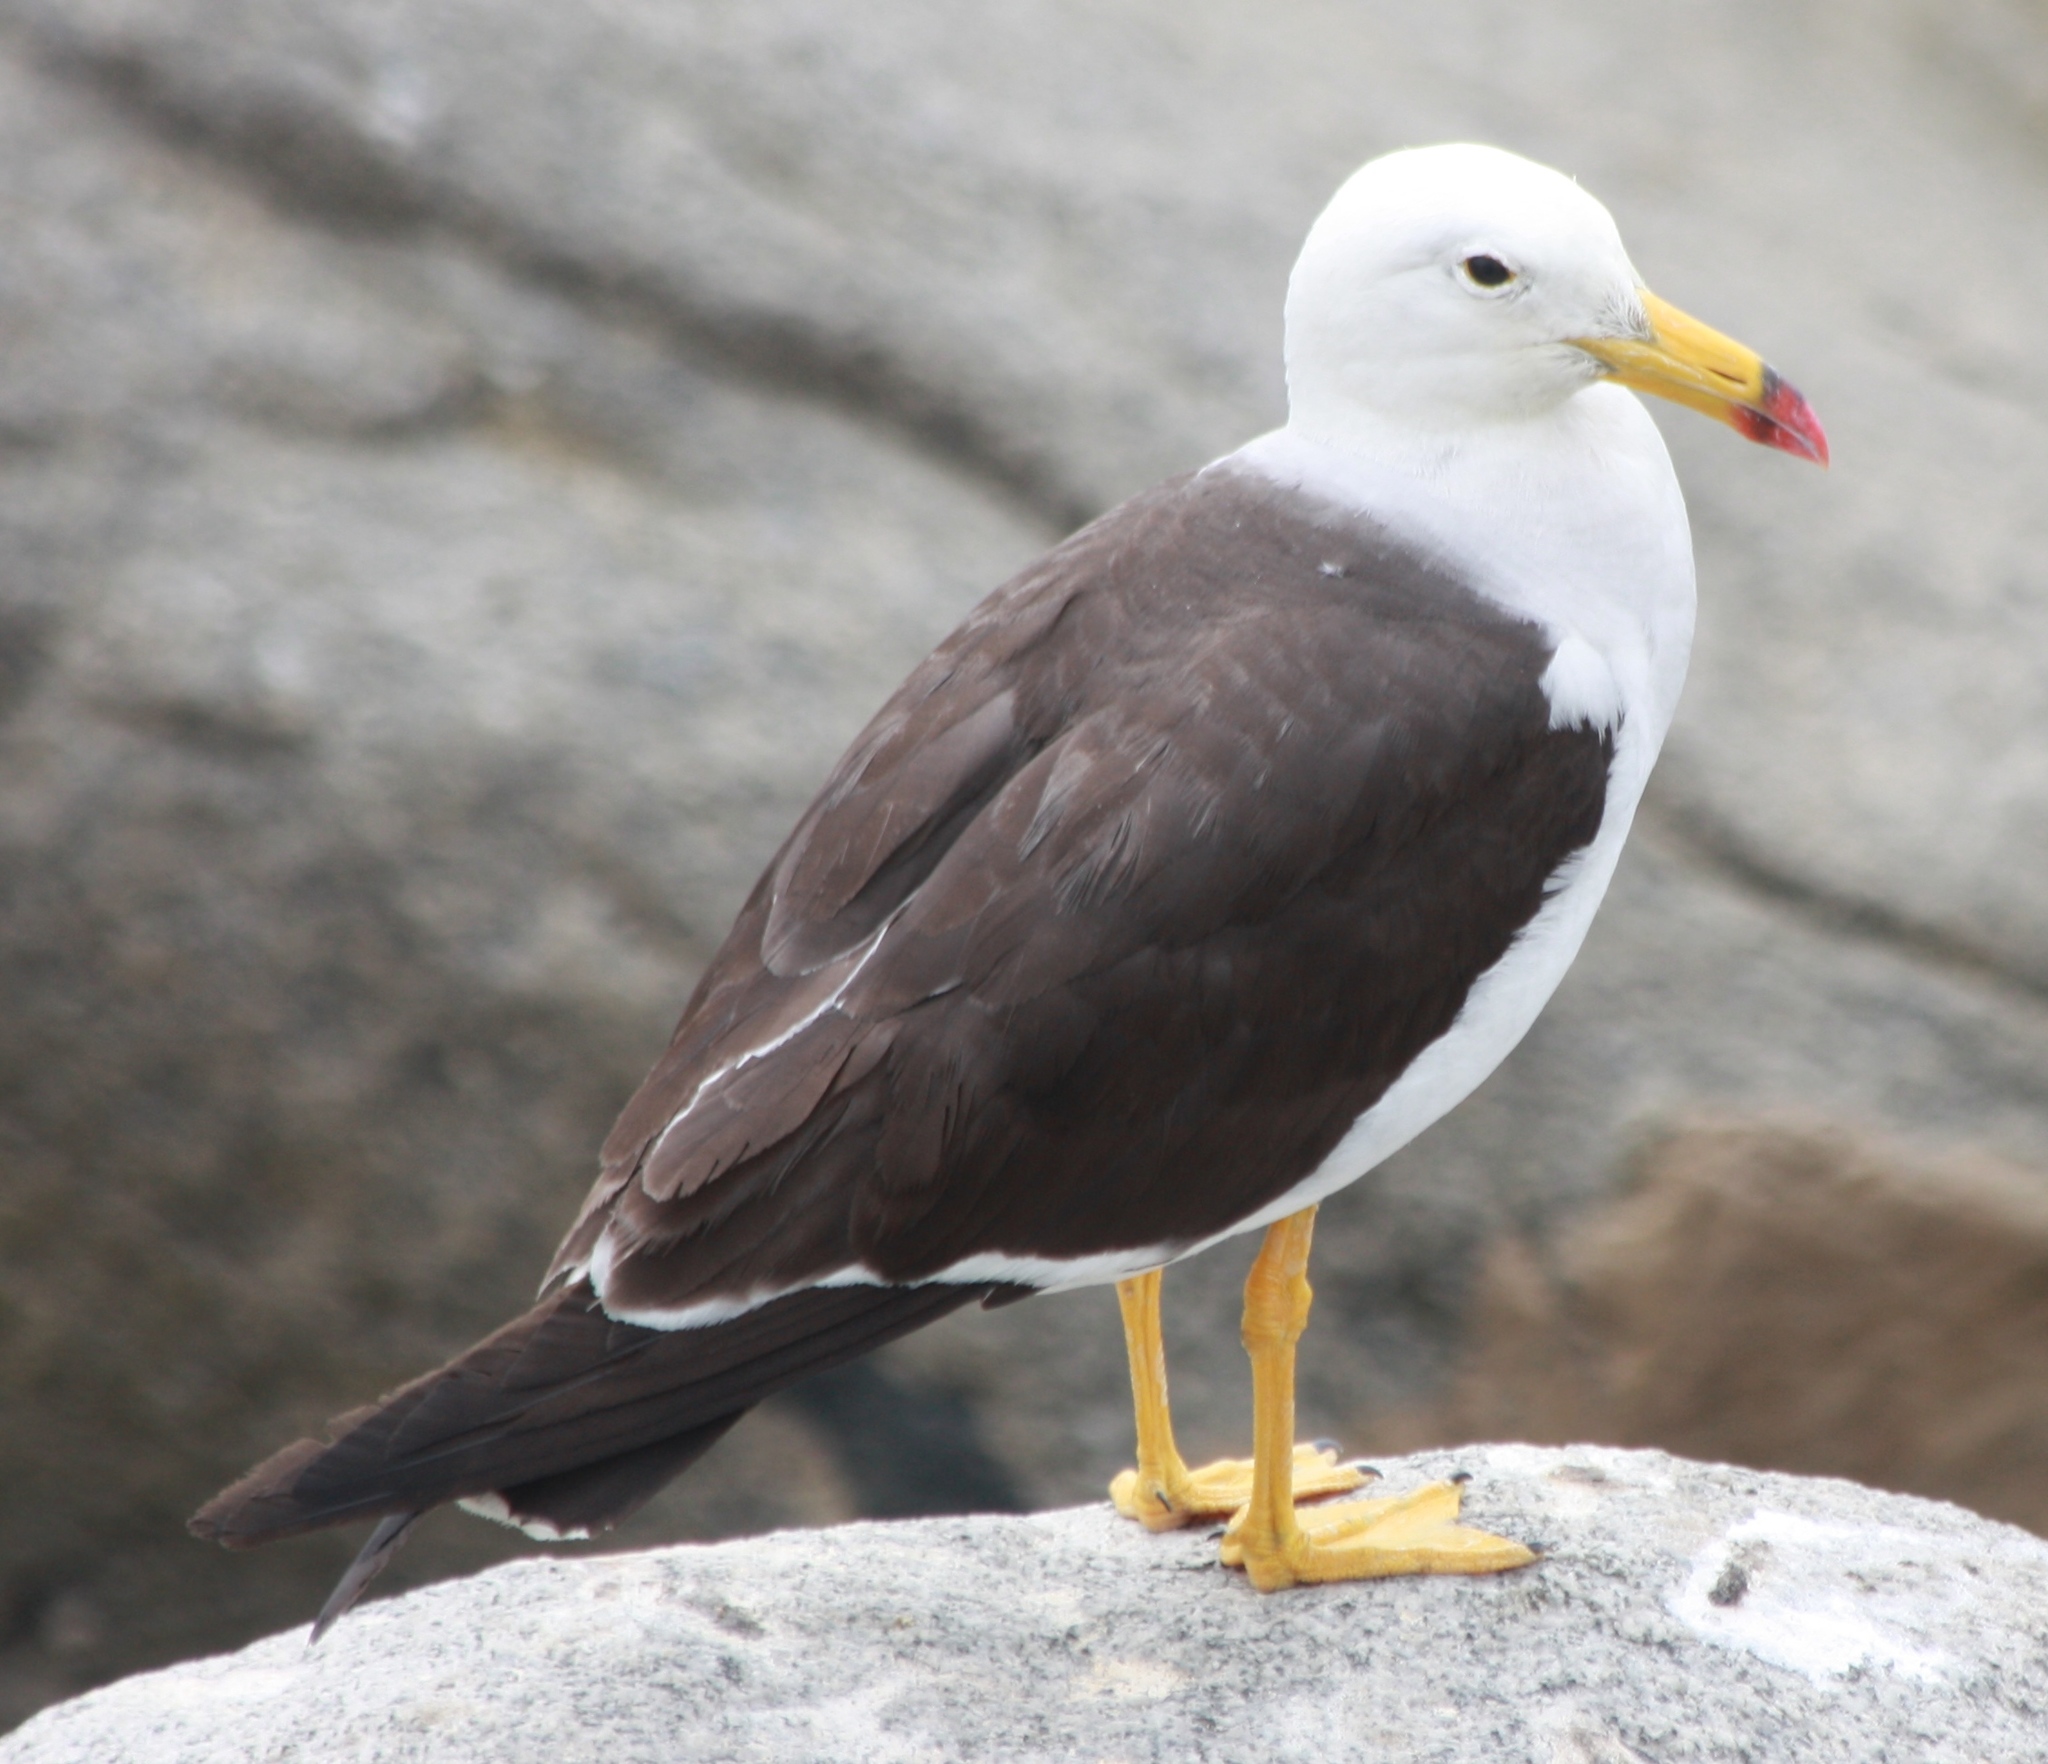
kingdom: Animalia
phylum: Chordata
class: Aves
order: Charadriiformes
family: Laridae
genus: Larus
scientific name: Larus belcheri
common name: Belcher's gull
